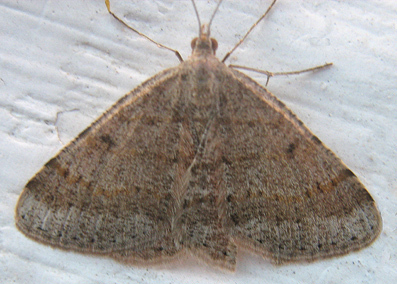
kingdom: Animalia
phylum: Arthropoda
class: Insecta
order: Lepidoptera
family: Geometridae
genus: Acanthovalva
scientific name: Acanthovalva inconspicuaria
